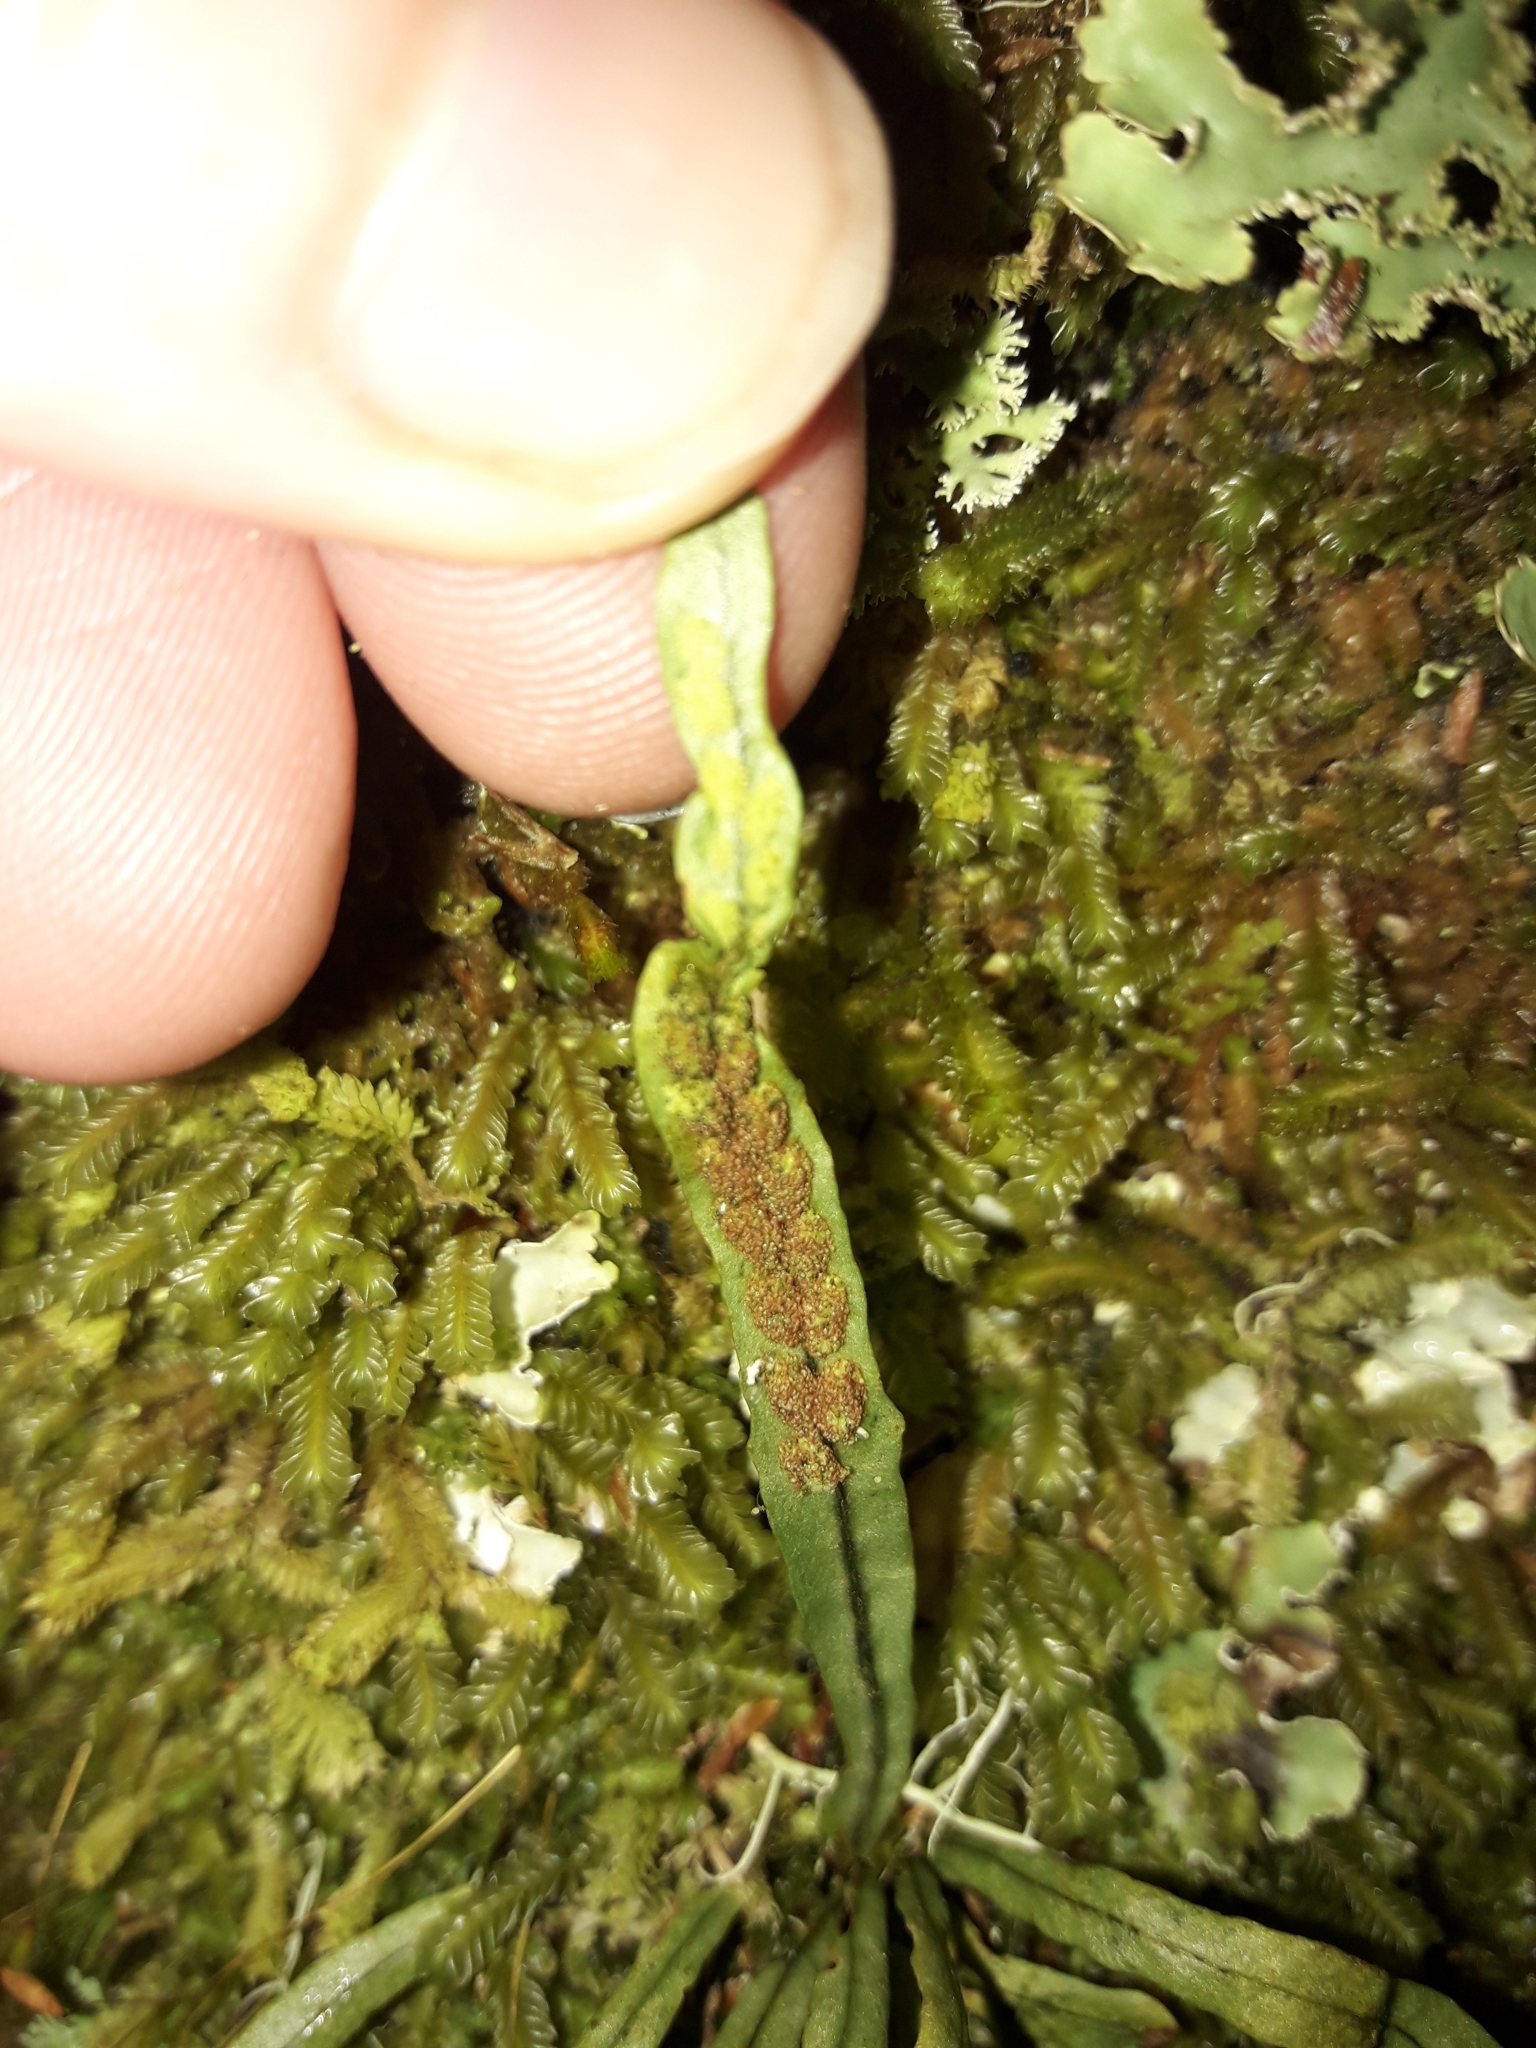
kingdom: Plantae
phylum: Tracheophyta
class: Polypodiopsida
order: Polypodiales
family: Polypodiaceae
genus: Notogrammitis
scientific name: Notogrammitis angustifolia
